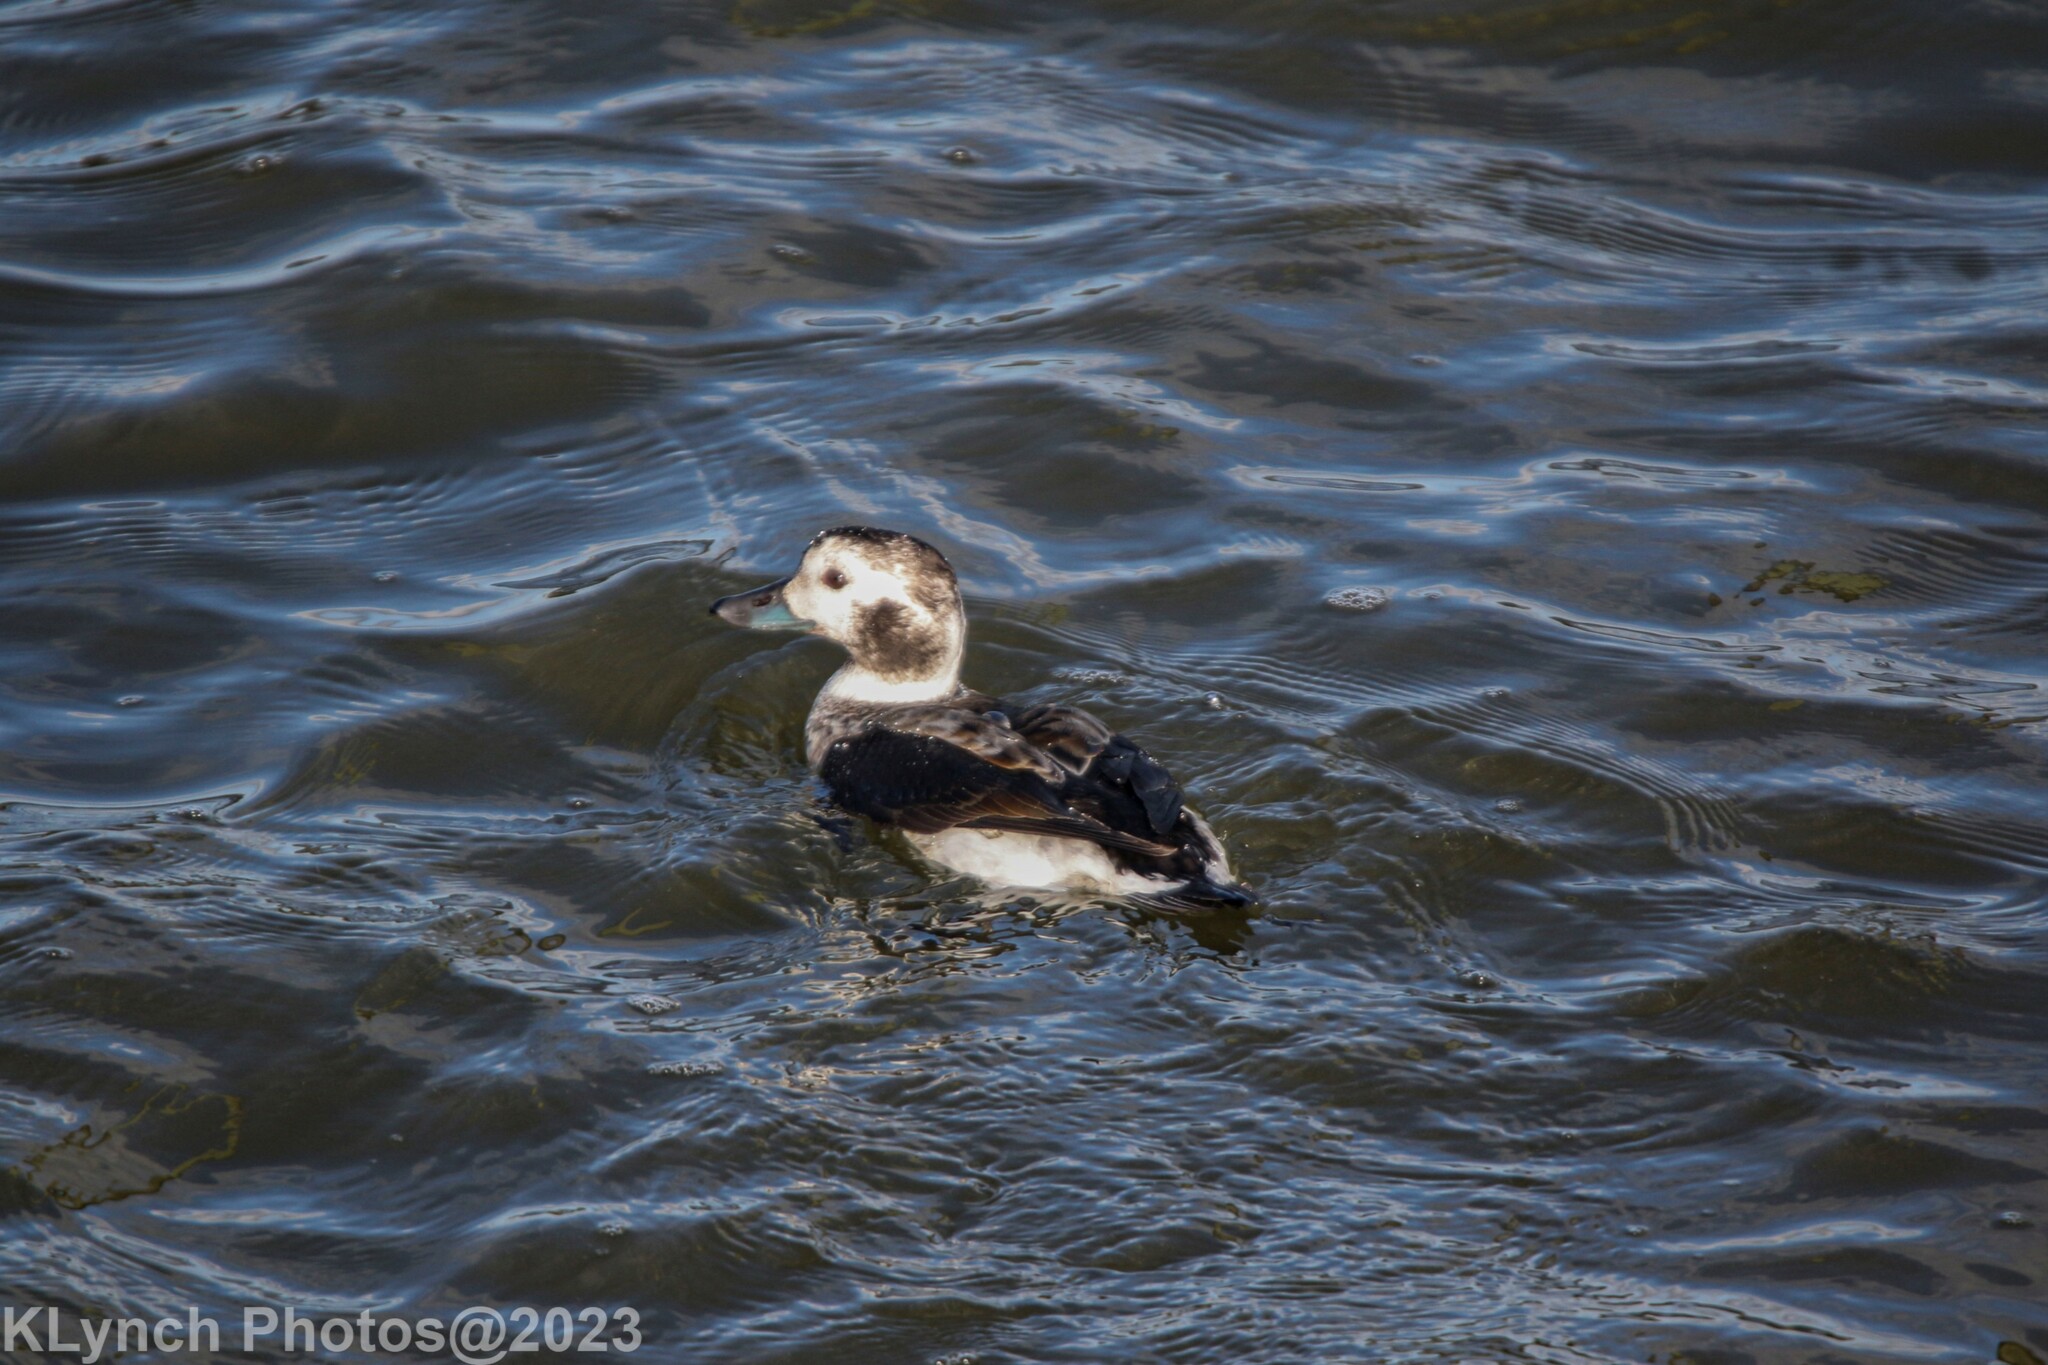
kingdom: Animalia
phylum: Chordata
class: Aves
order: Anseriformes
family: Anatidae
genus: Clangula
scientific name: Clangula hyemalis
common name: Long-tailed duck
